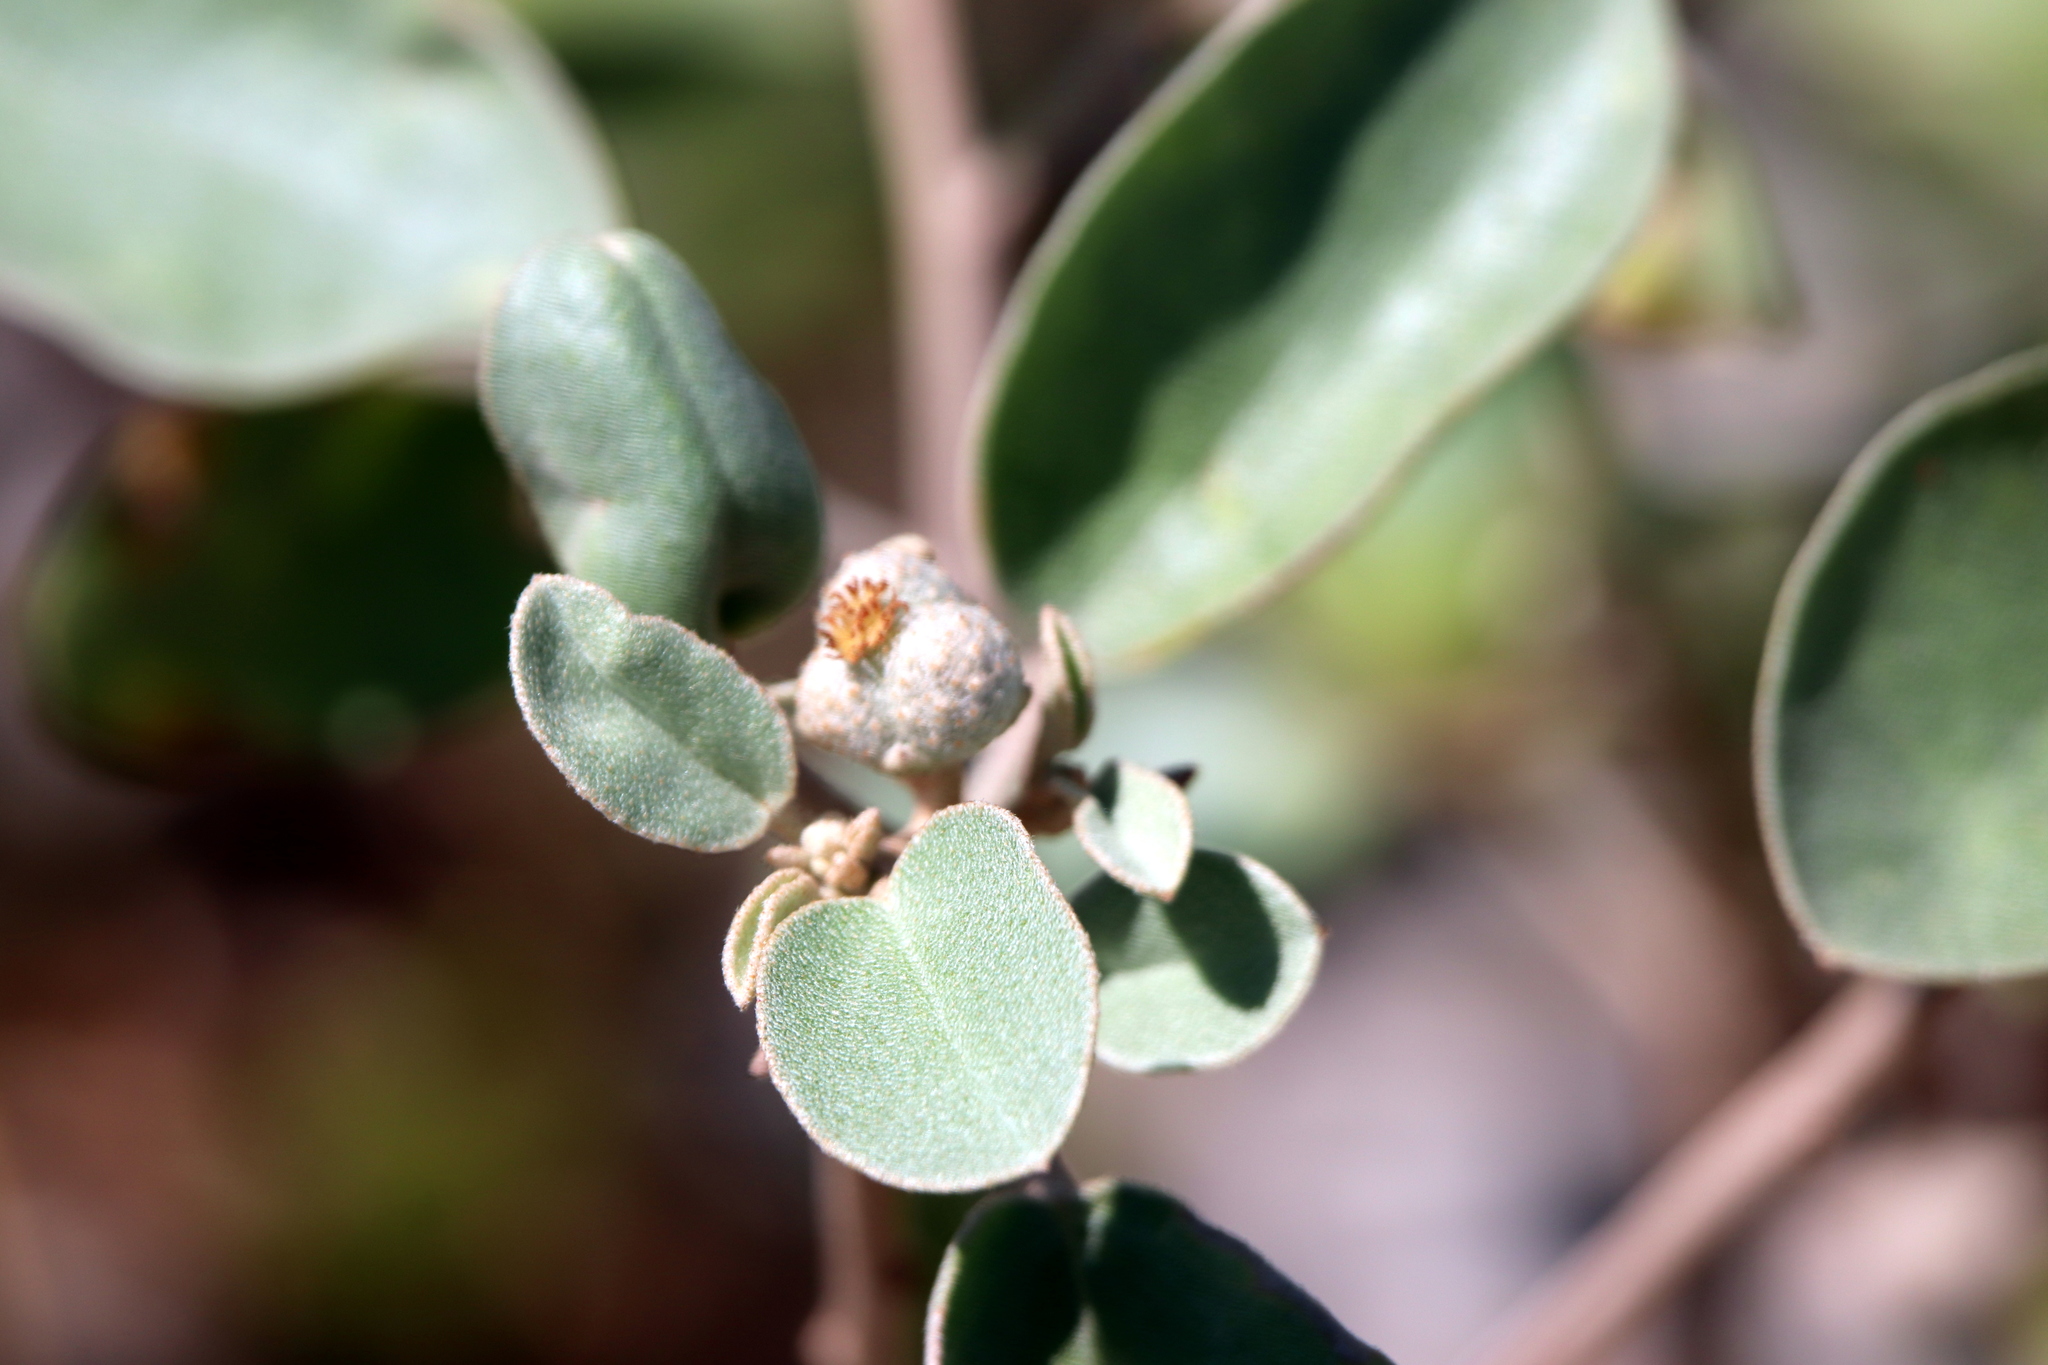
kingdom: Plantae
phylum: Tracheophyta
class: Magnoliopsida
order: Malpighiales
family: Euphorbiaceae
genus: Croton
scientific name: Croton punctatus
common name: Beach-tea
